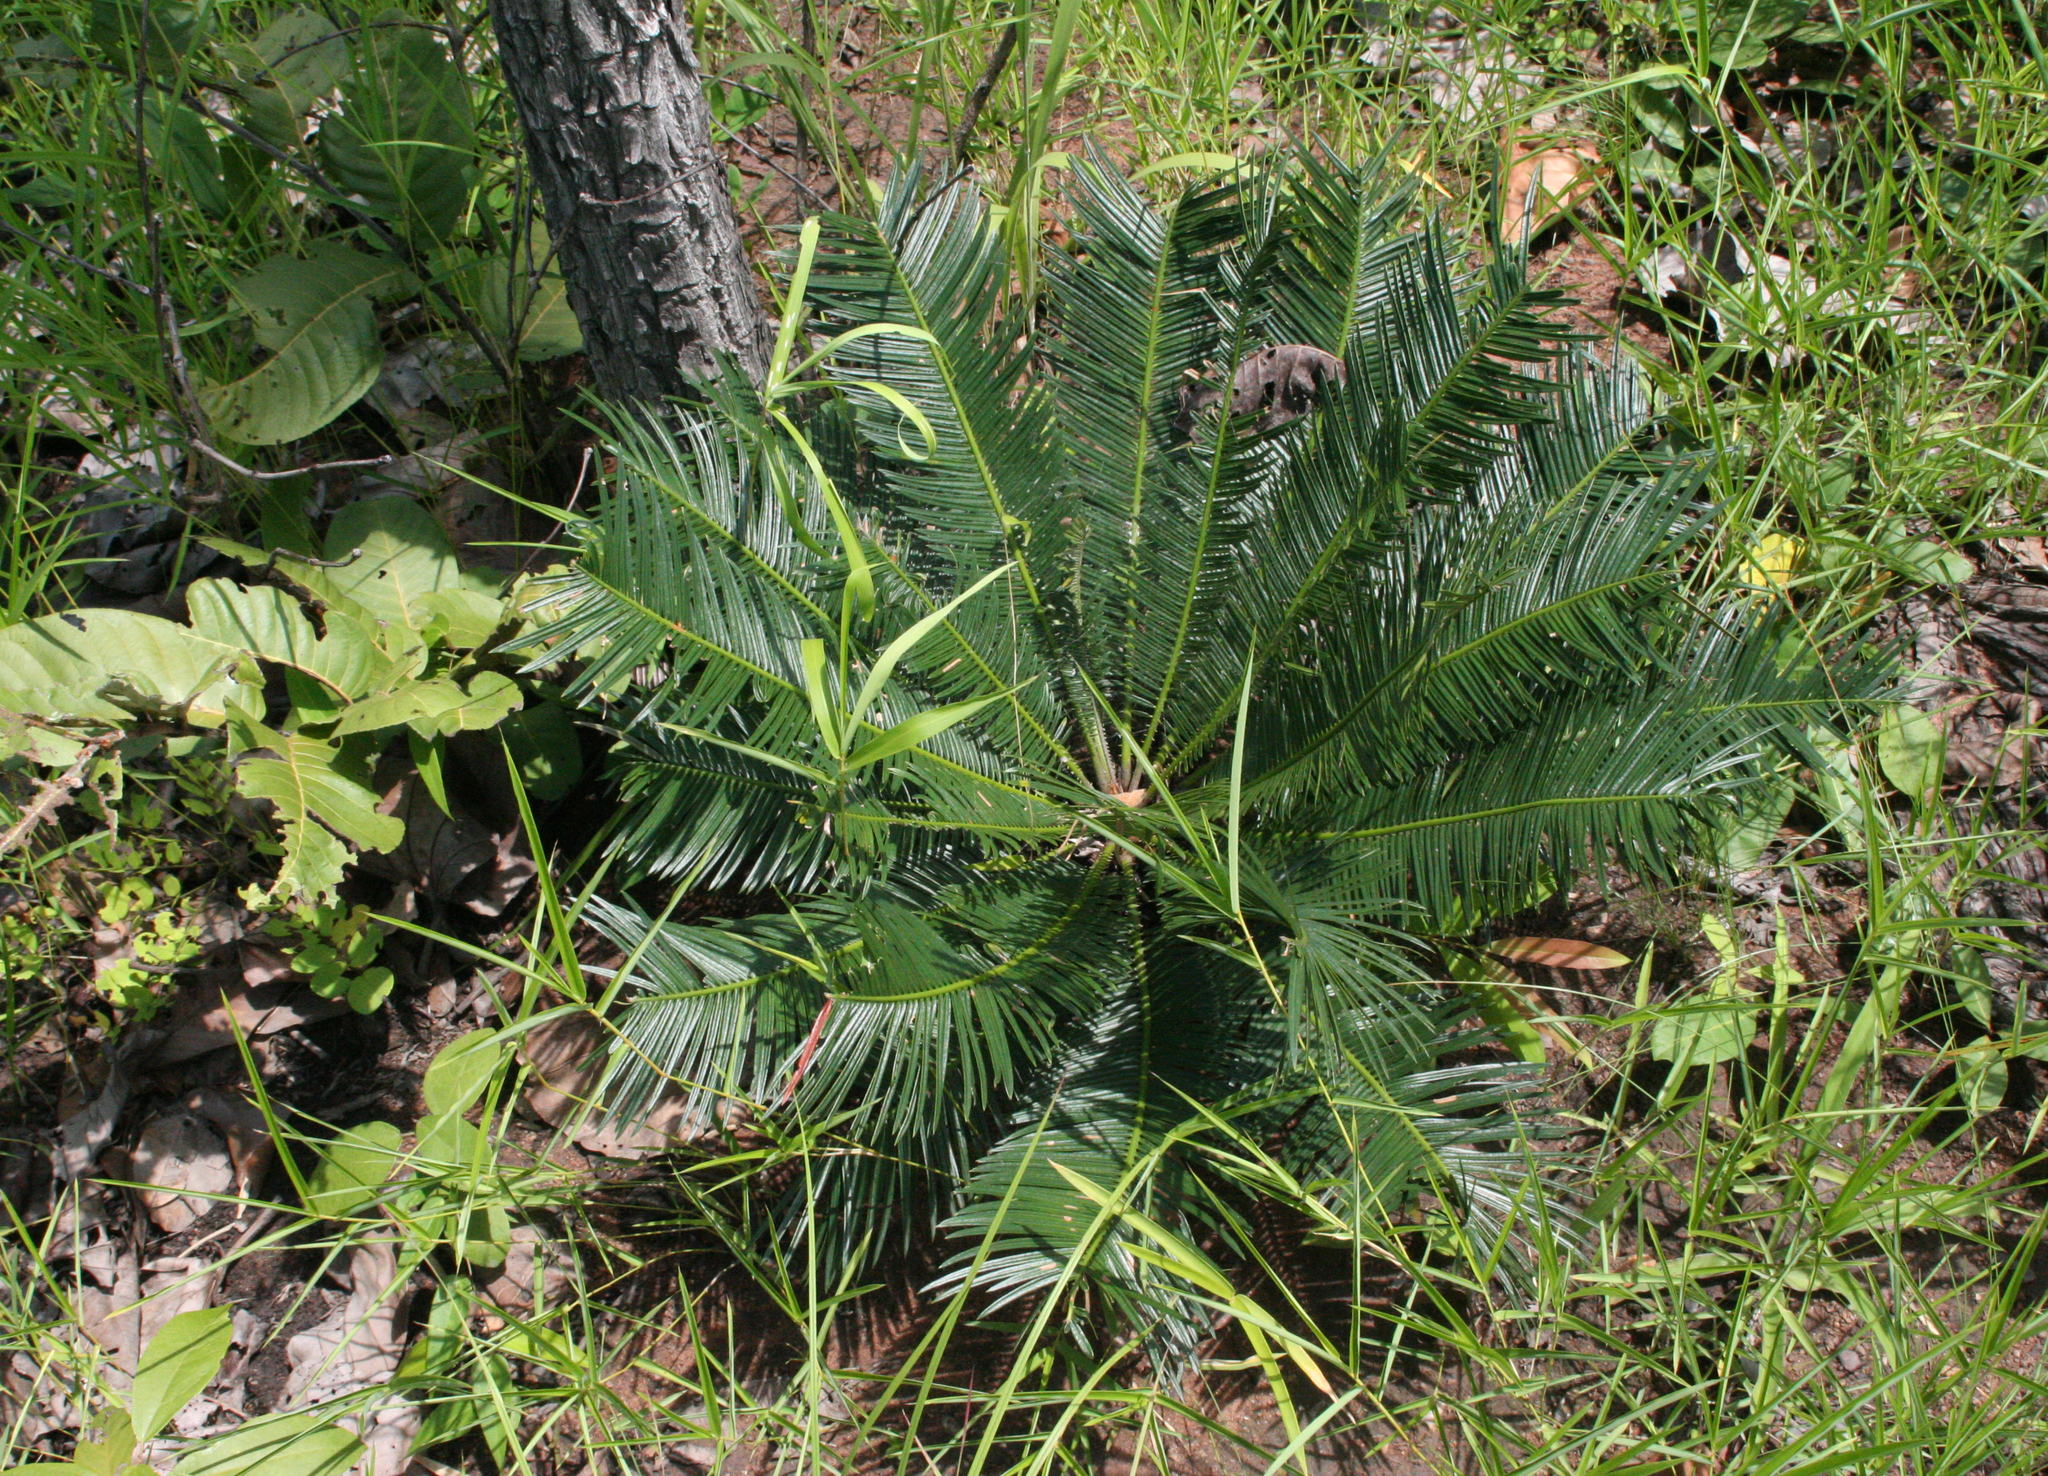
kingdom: Plantae
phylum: Tracheophyta
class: Cycadopsida
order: Cycadales
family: Cycadaceae
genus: Cycas
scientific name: Cycas siamensis
